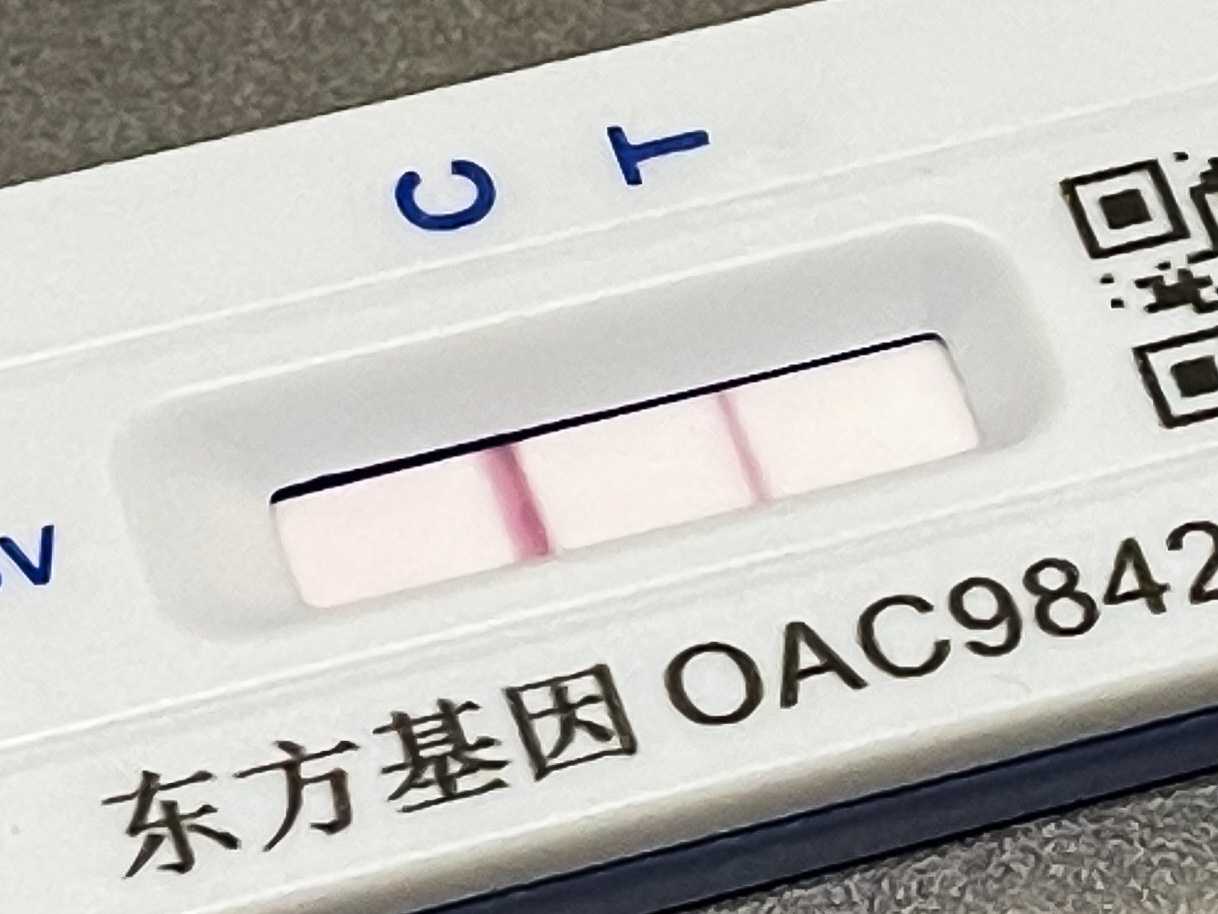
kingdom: Viruses
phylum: Pisuviricota
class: Pisoniviricetes
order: Nidovirales
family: Coronaviridae
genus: Betacoronavirus
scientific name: Betacoronavirus Severe acute respiratory syndrome-related coronavirus
